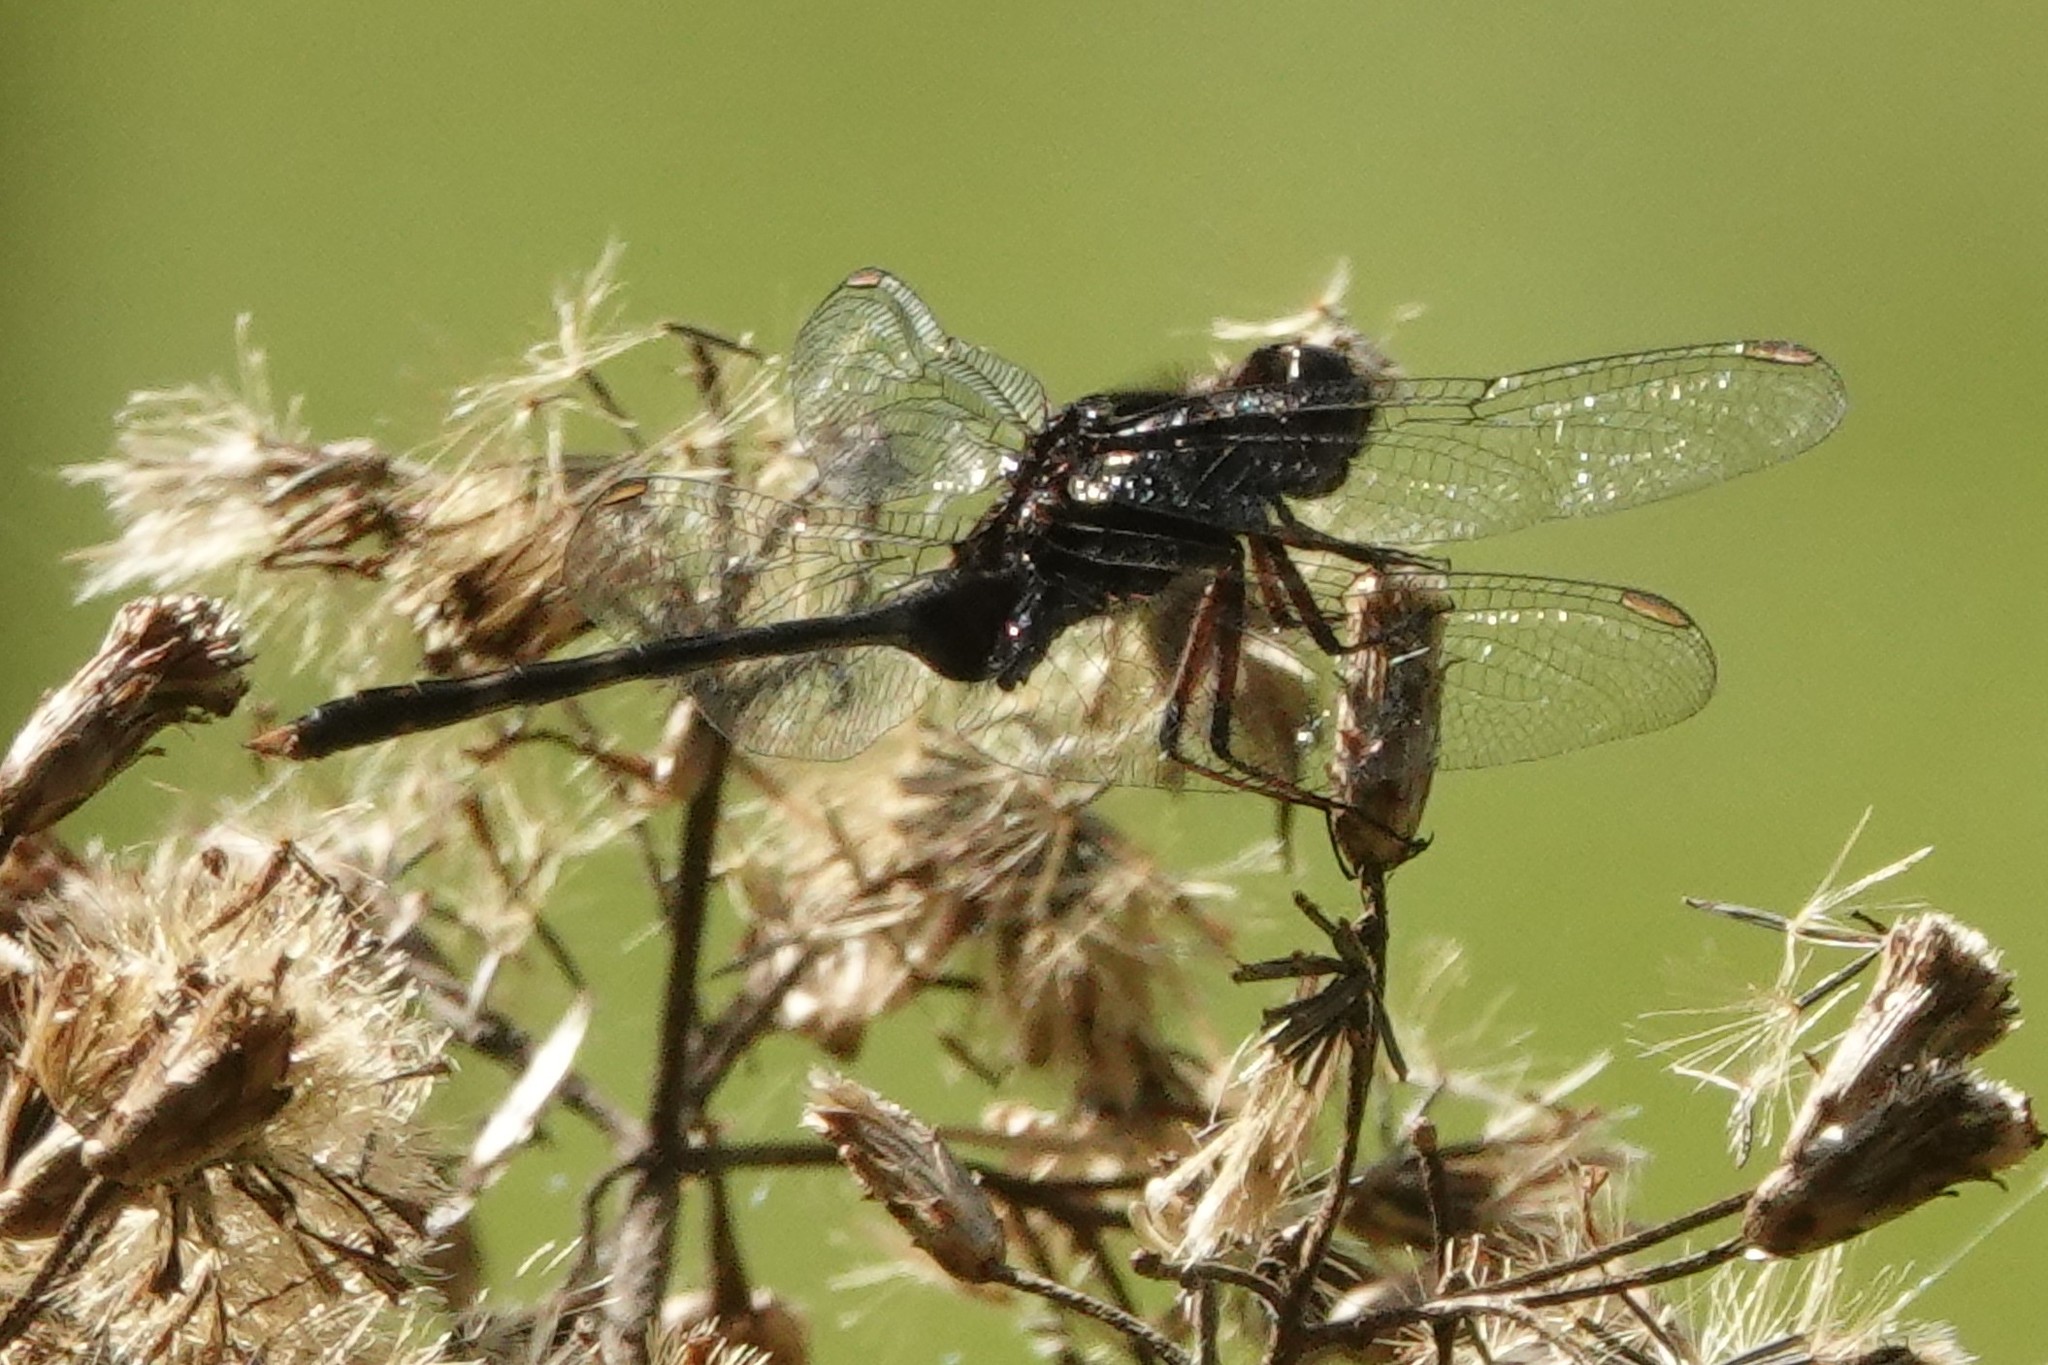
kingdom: Animalia
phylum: Arthropoda
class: Insecta
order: Odonata
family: Libellulidae
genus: Erythemis
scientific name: Erythemis plebeja
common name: Pin-tailed pondhawk
